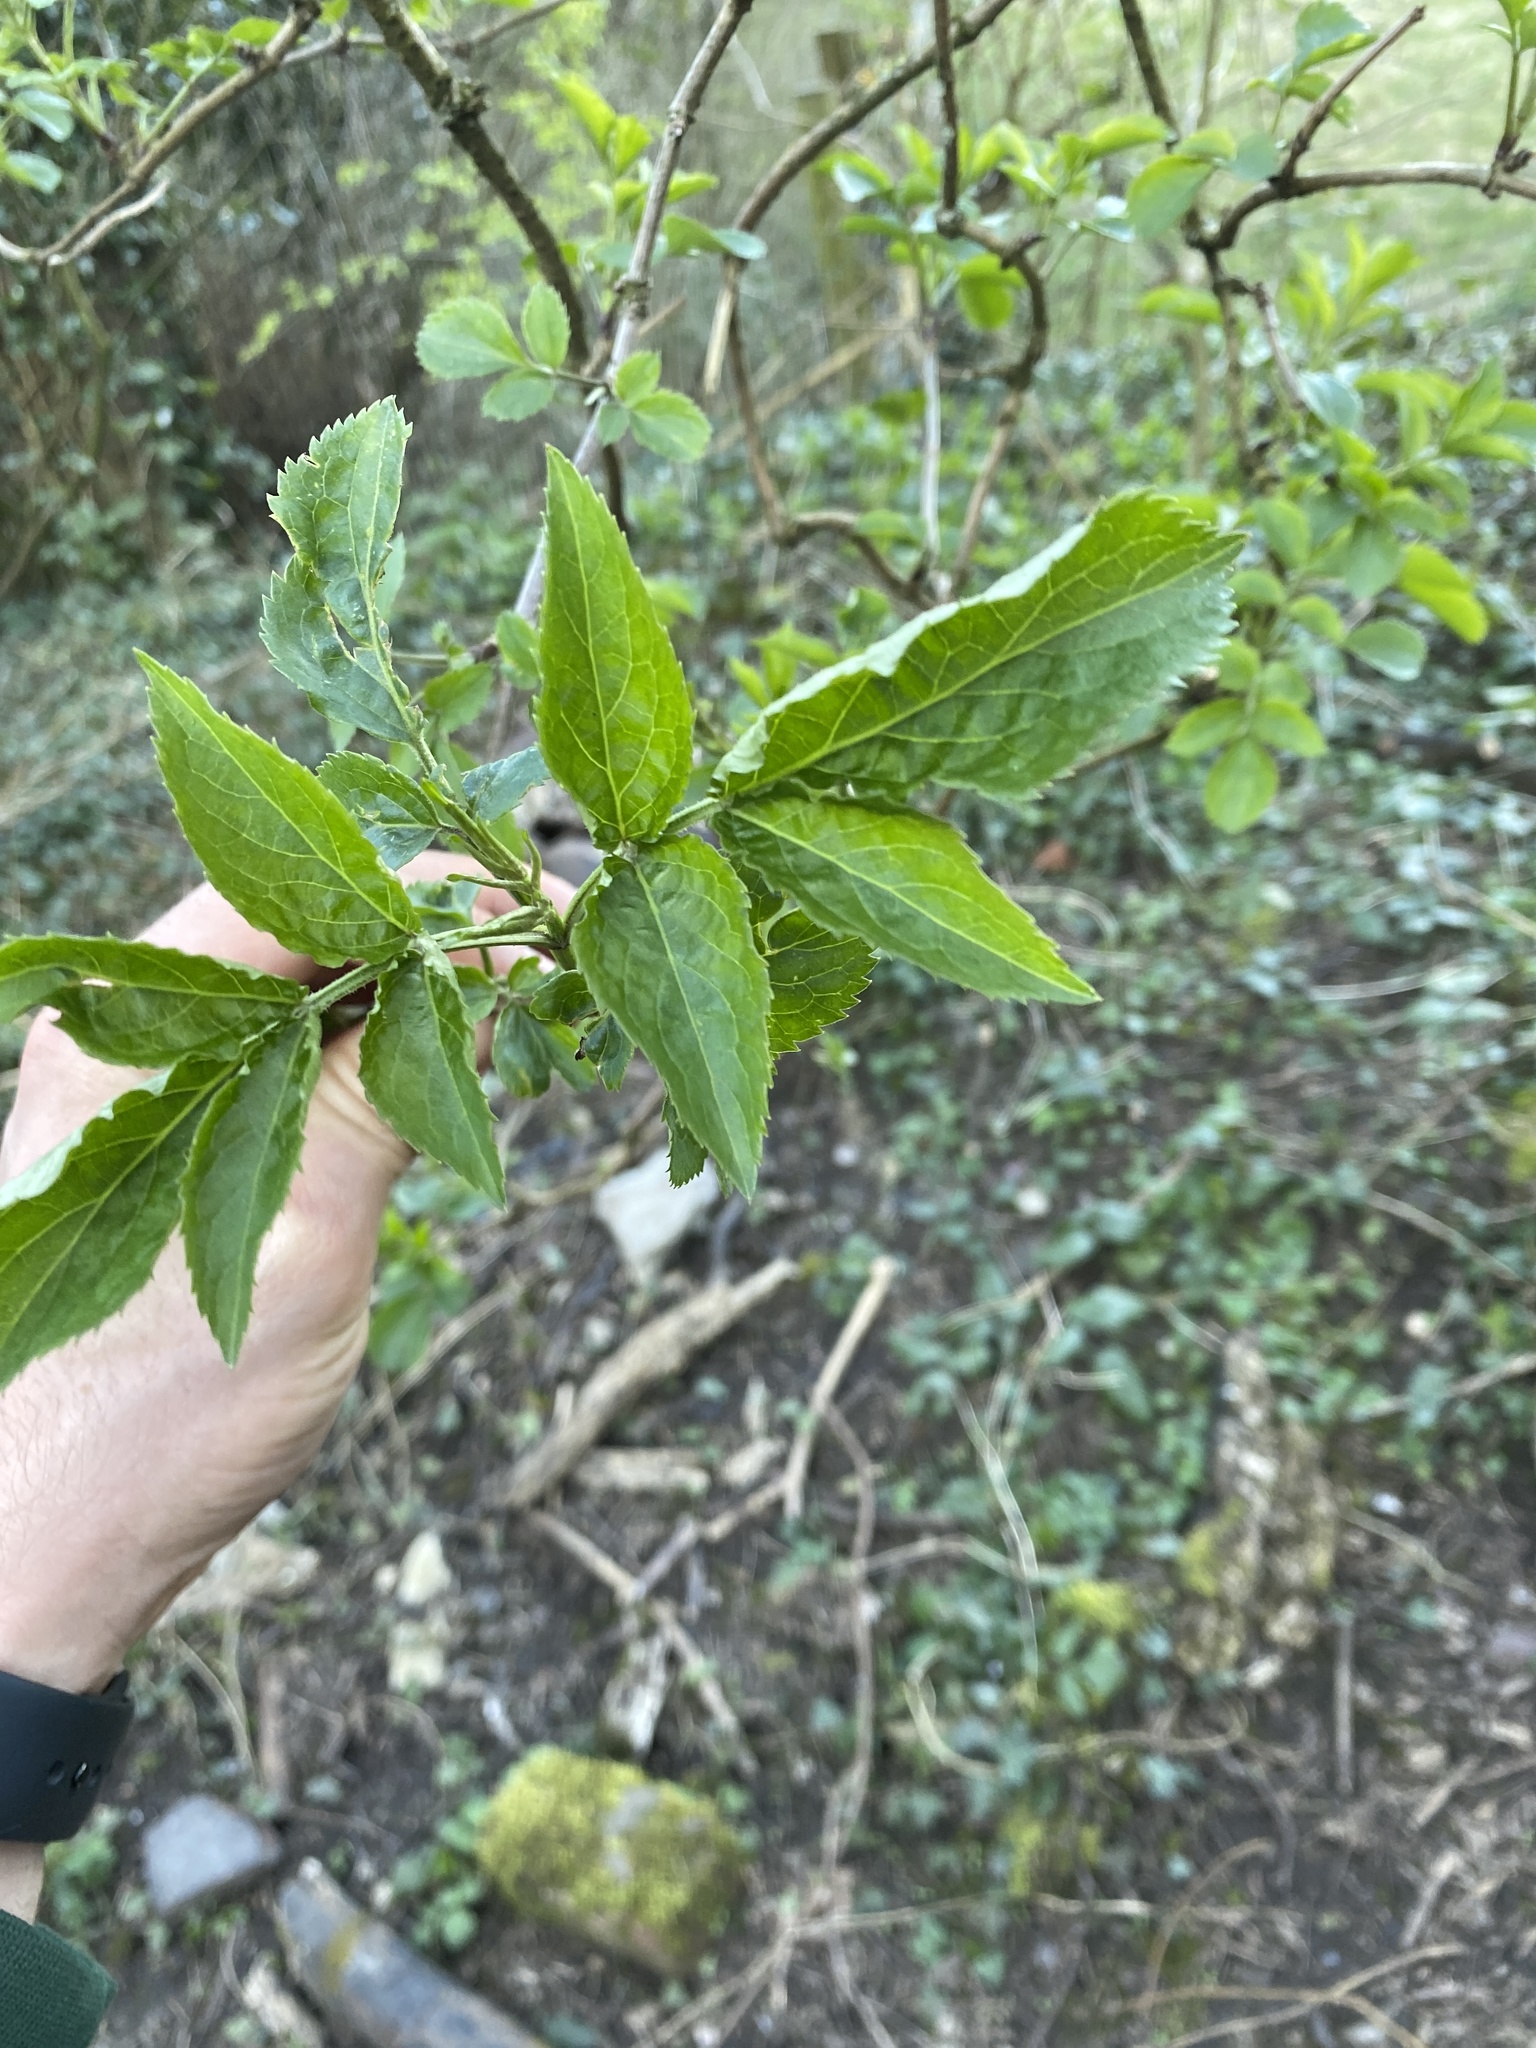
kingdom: Plantae
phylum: Tracheophyta
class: Magnoliopsida
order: Dipsacales
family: Viburnaceae
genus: Sambucus
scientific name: Sambucus nigra
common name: Elder
